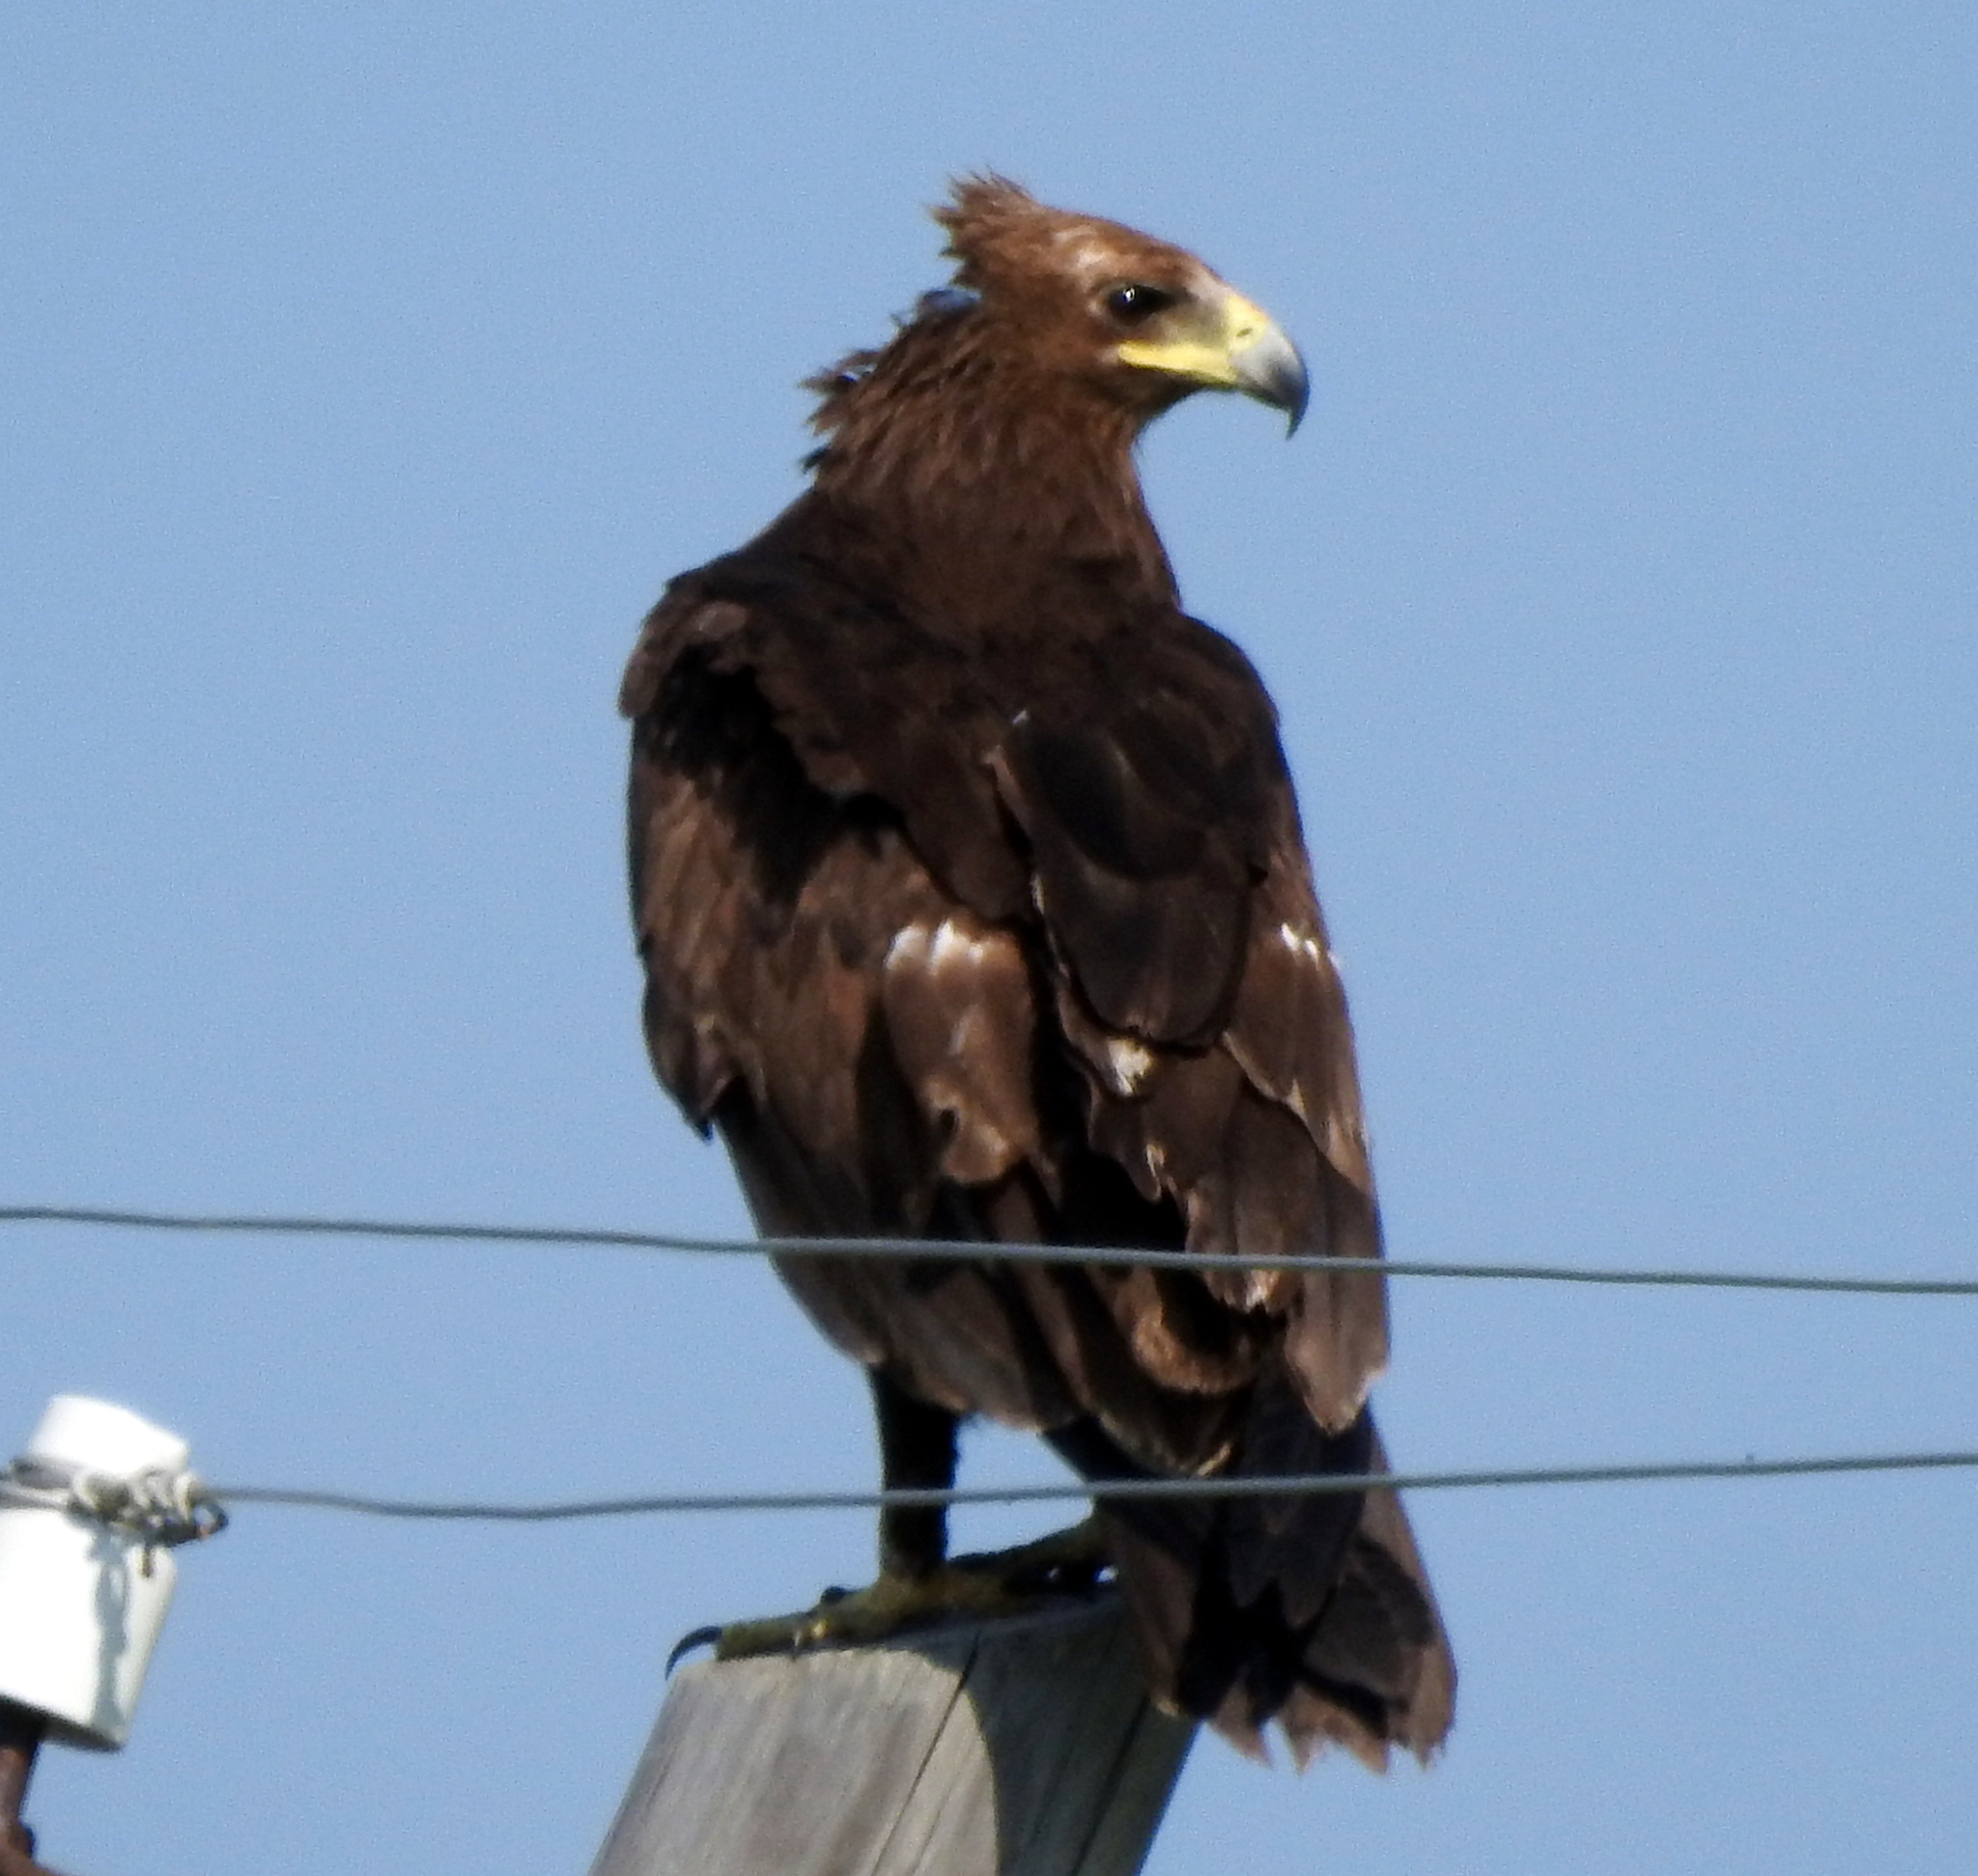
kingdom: Animalia
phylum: Chordata
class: Aves
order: Accipitriformes
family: Accipitridae
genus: Aquila
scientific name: Aquila clanga
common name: Greater spotted eagle
